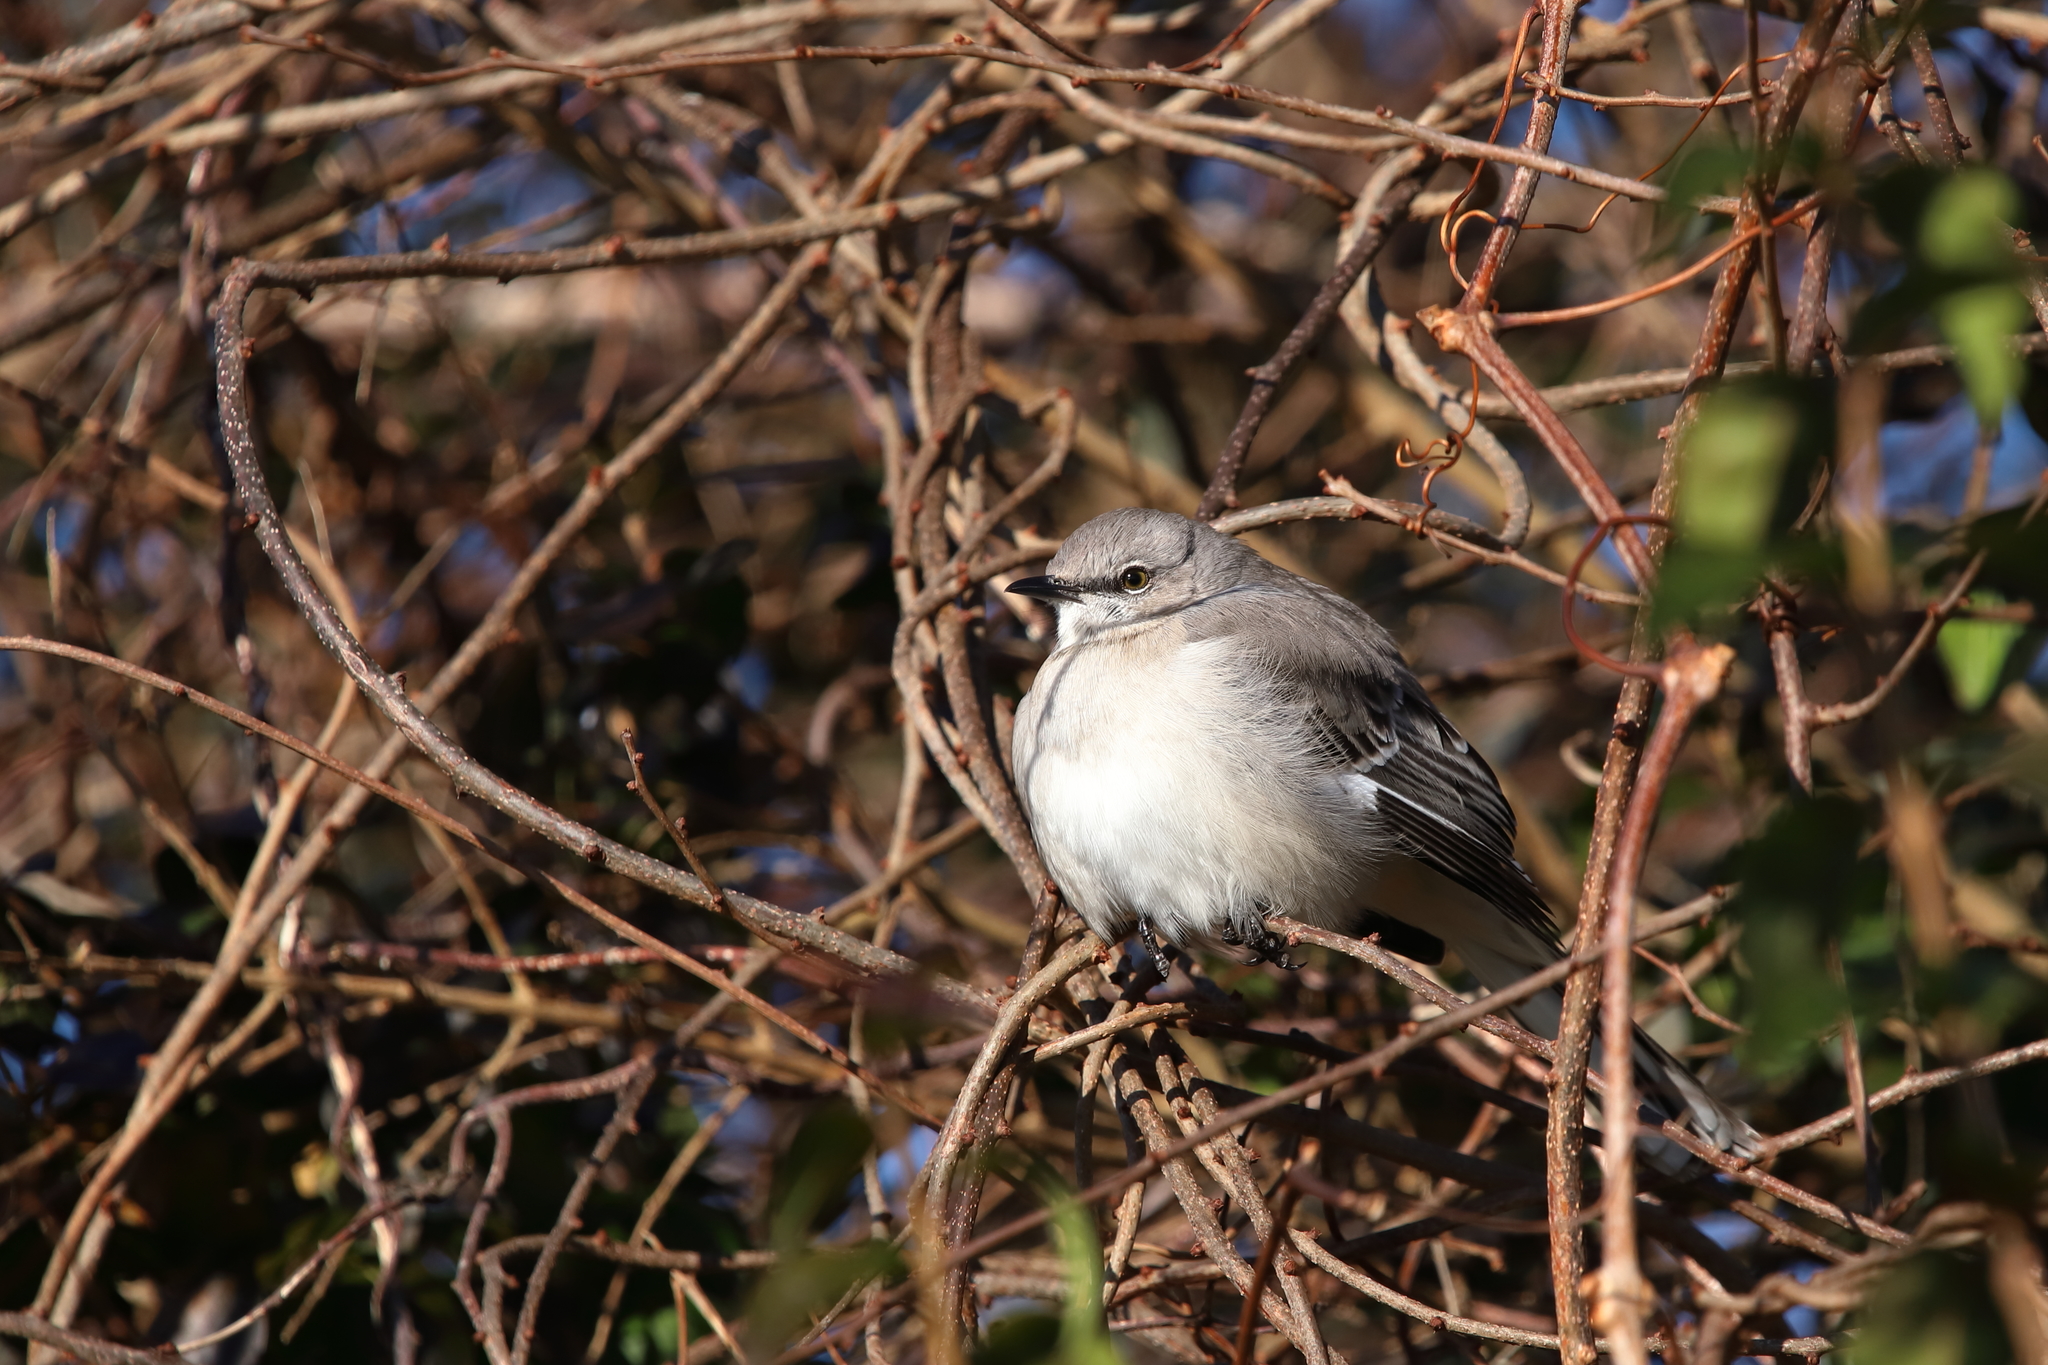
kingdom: Animalia
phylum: Chordata
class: Aves
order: Passeriformes
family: Mimidae
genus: Mimus
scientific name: Mimus polyglottos
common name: Northern mockingbird
